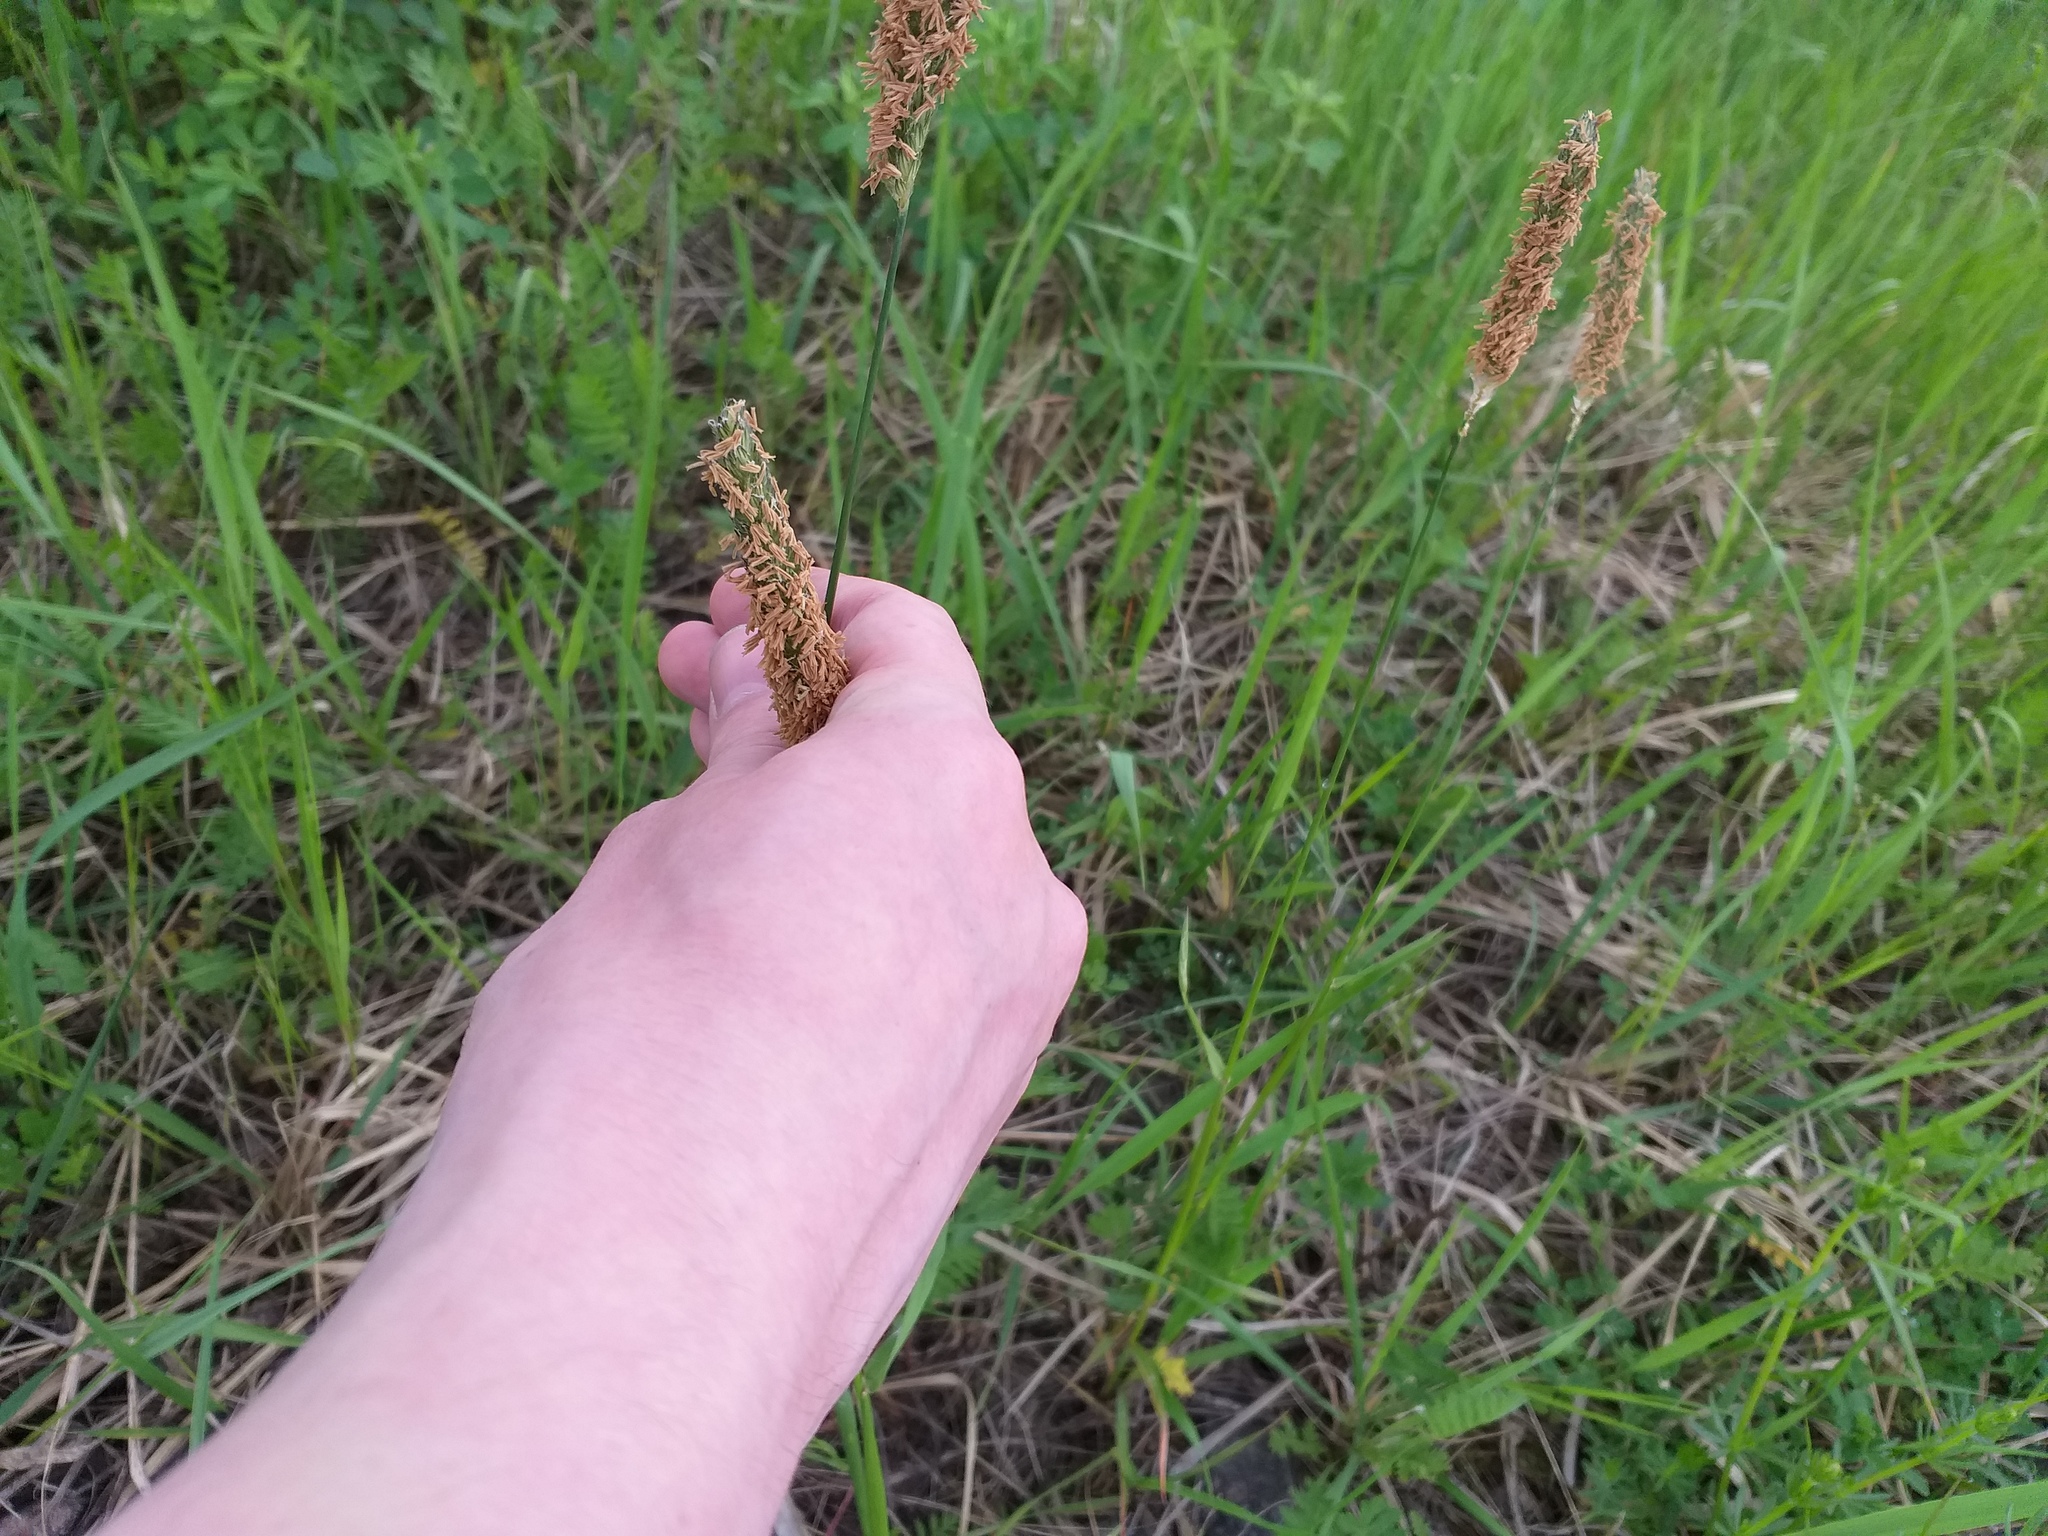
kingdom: Plantae
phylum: Tracheophyta
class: Liliopsida
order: Poales
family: Poaceae
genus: Alopecurus
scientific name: Alopecurus pratensis
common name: Meadow foxtail
